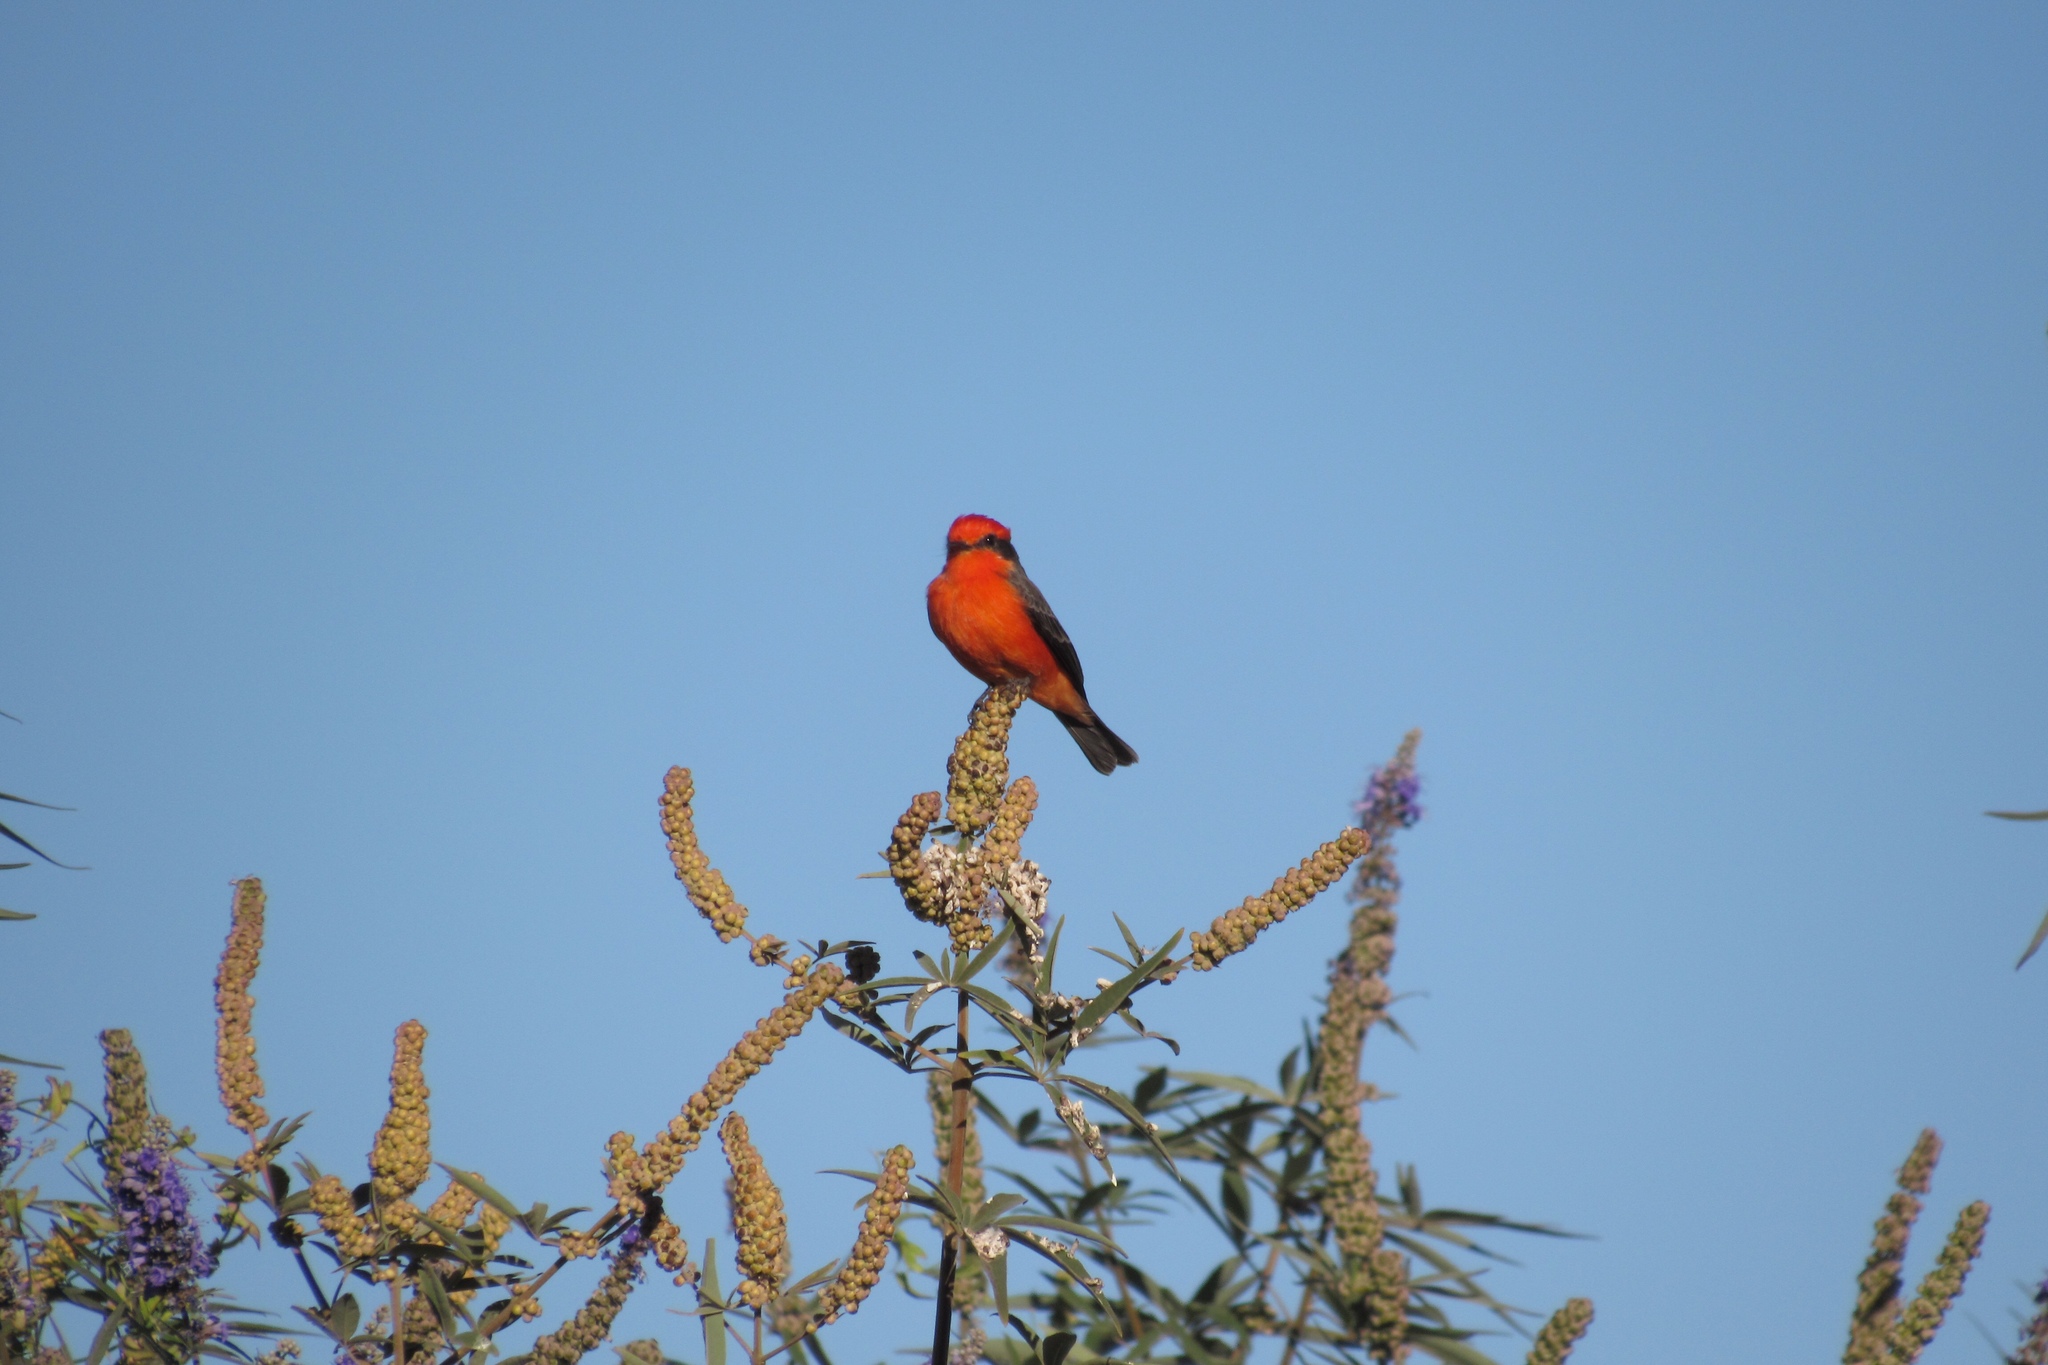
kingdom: Animalia
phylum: Chordata
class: Aves
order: Passeriformes
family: Tyrannidae
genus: Pyrocephalus
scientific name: Pyrocephalus rubinus
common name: Vermilion flycatcher
